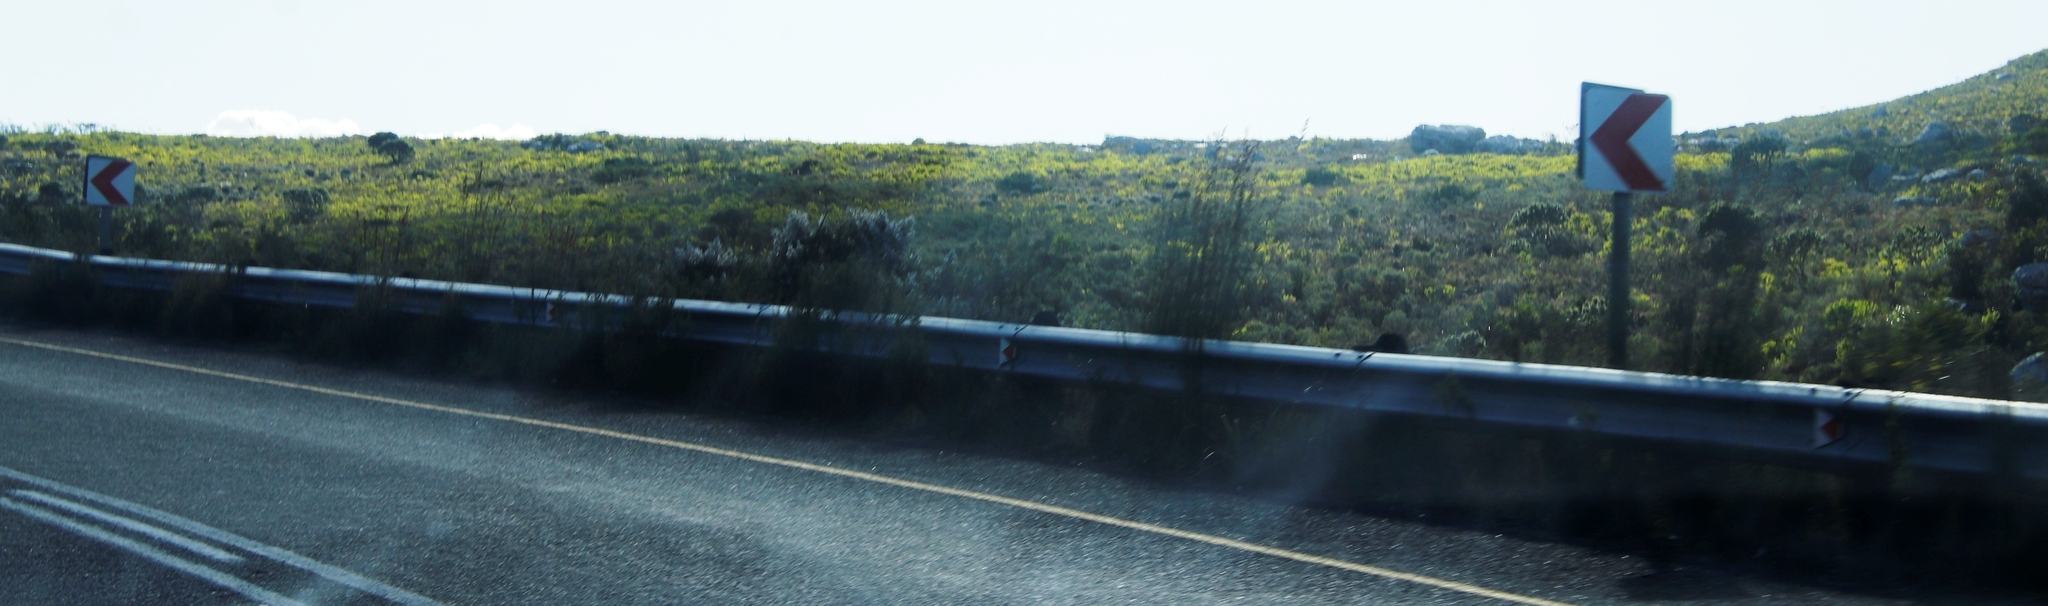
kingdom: Plantae
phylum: Tracheophyta
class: Liliopsida
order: Poales
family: Restionaceae
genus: Thamnochortus
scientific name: Thamnochortus insignis
